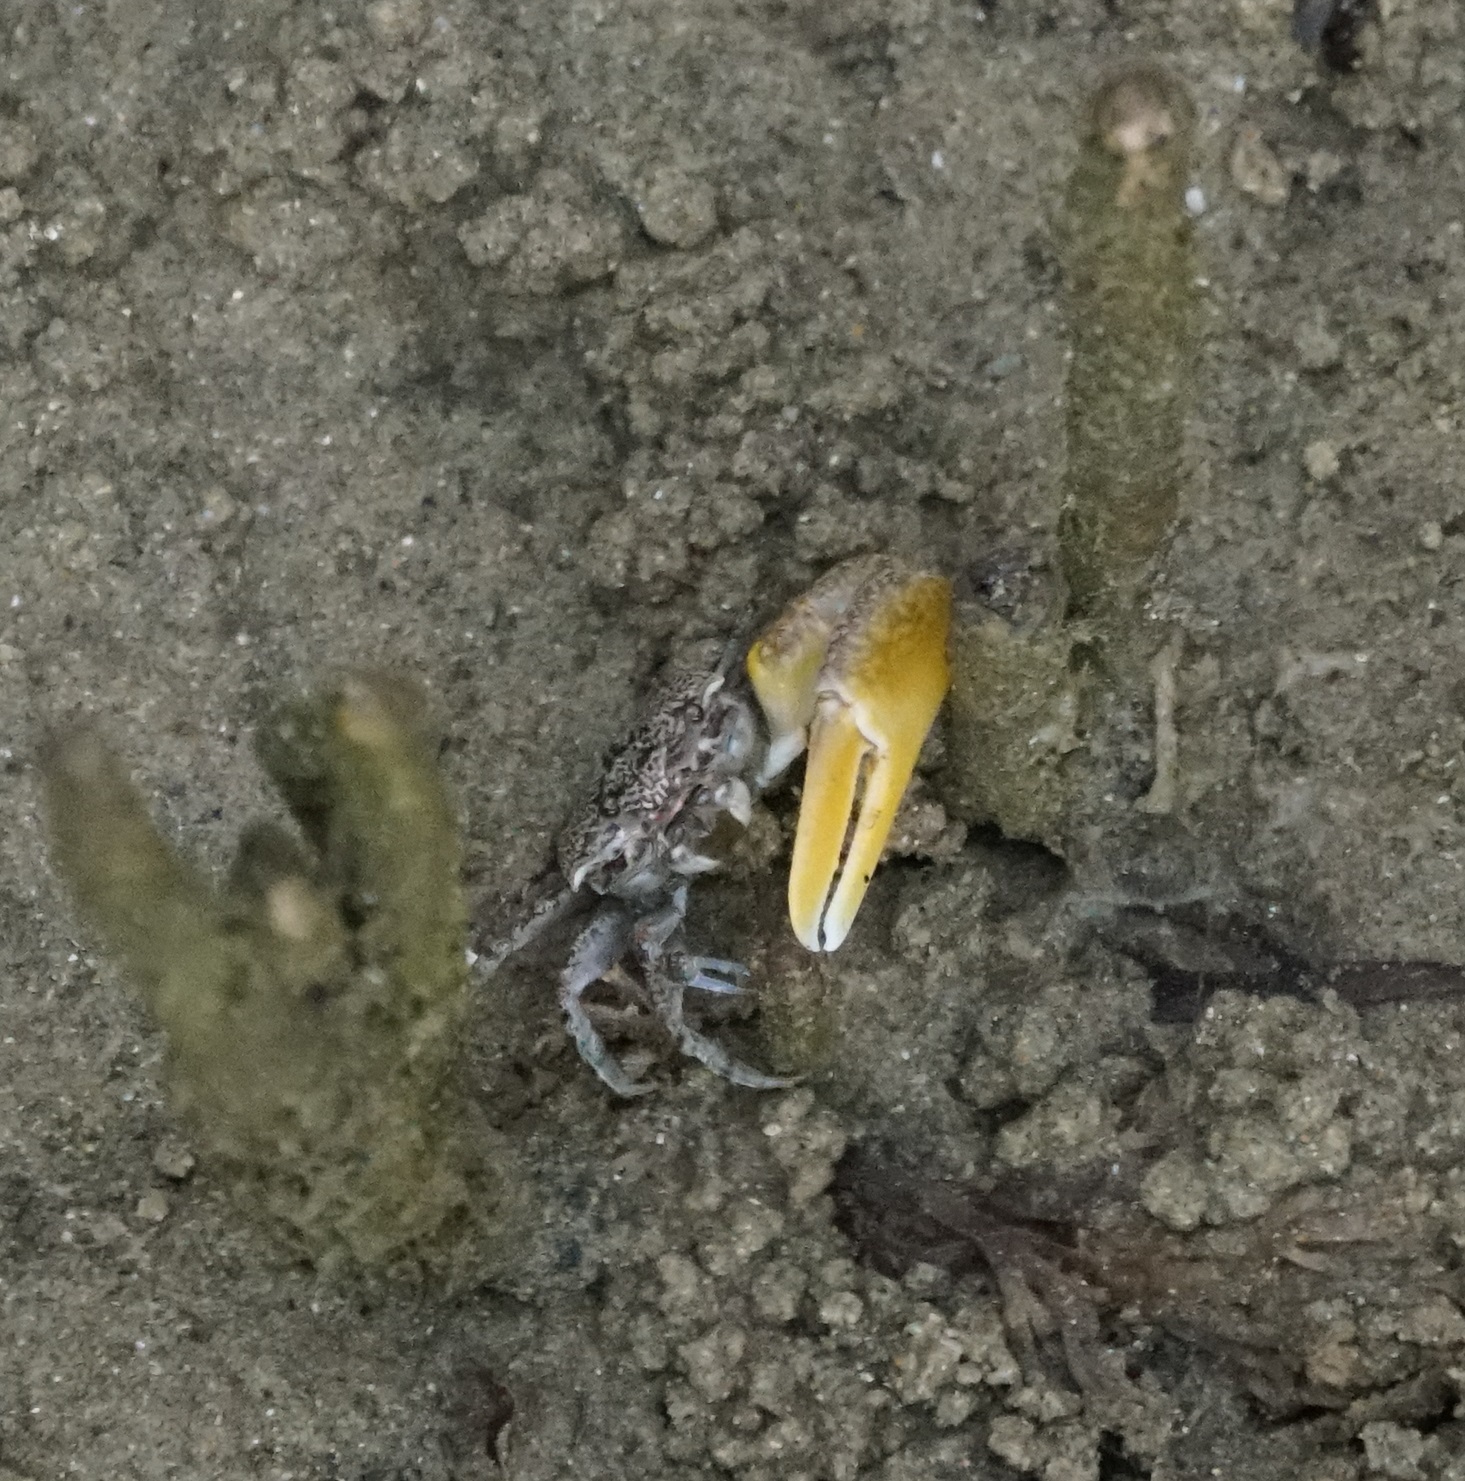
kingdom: Animalia
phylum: Arthropoda
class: Malacostraca
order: Decapoda
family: Ocypodidae
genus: Austruca
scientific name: Austruca perplexa
